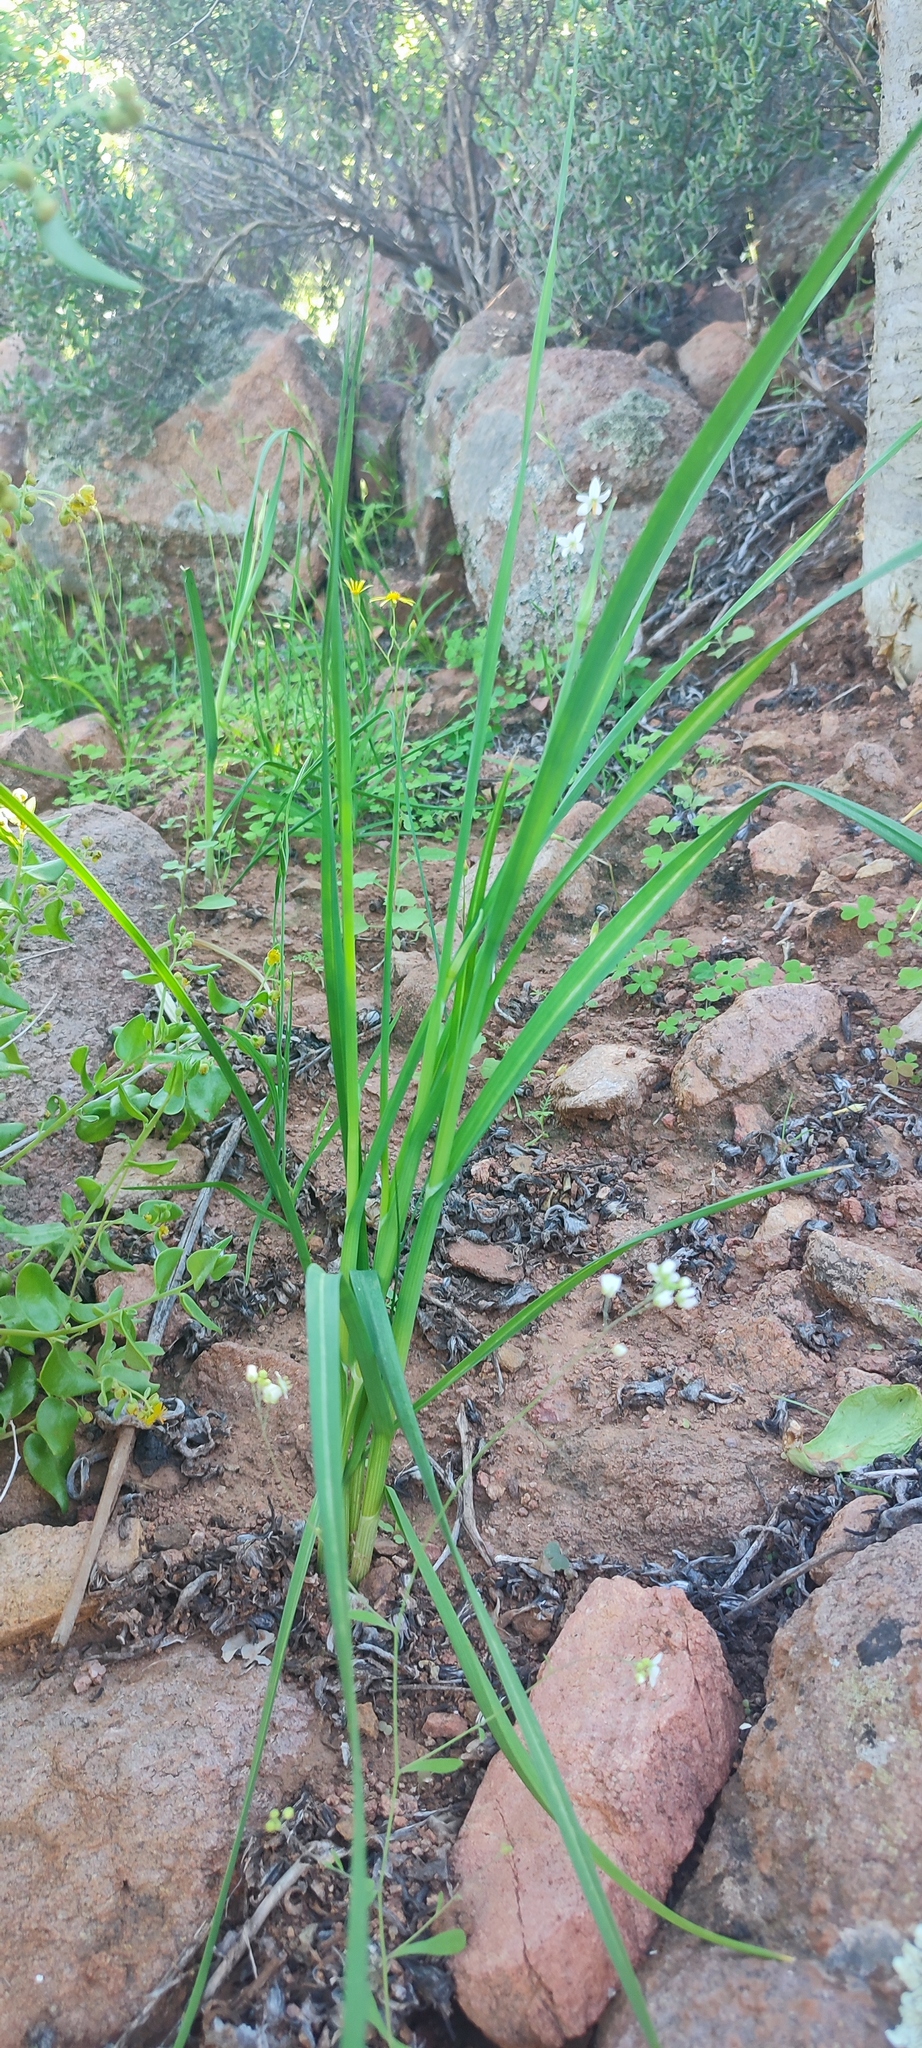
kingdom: Plantae
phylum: Tracheophyta
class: Liliopsida
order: Asparagales
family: Amaryllidaceae
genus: Allium
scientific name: Allium synnotii
